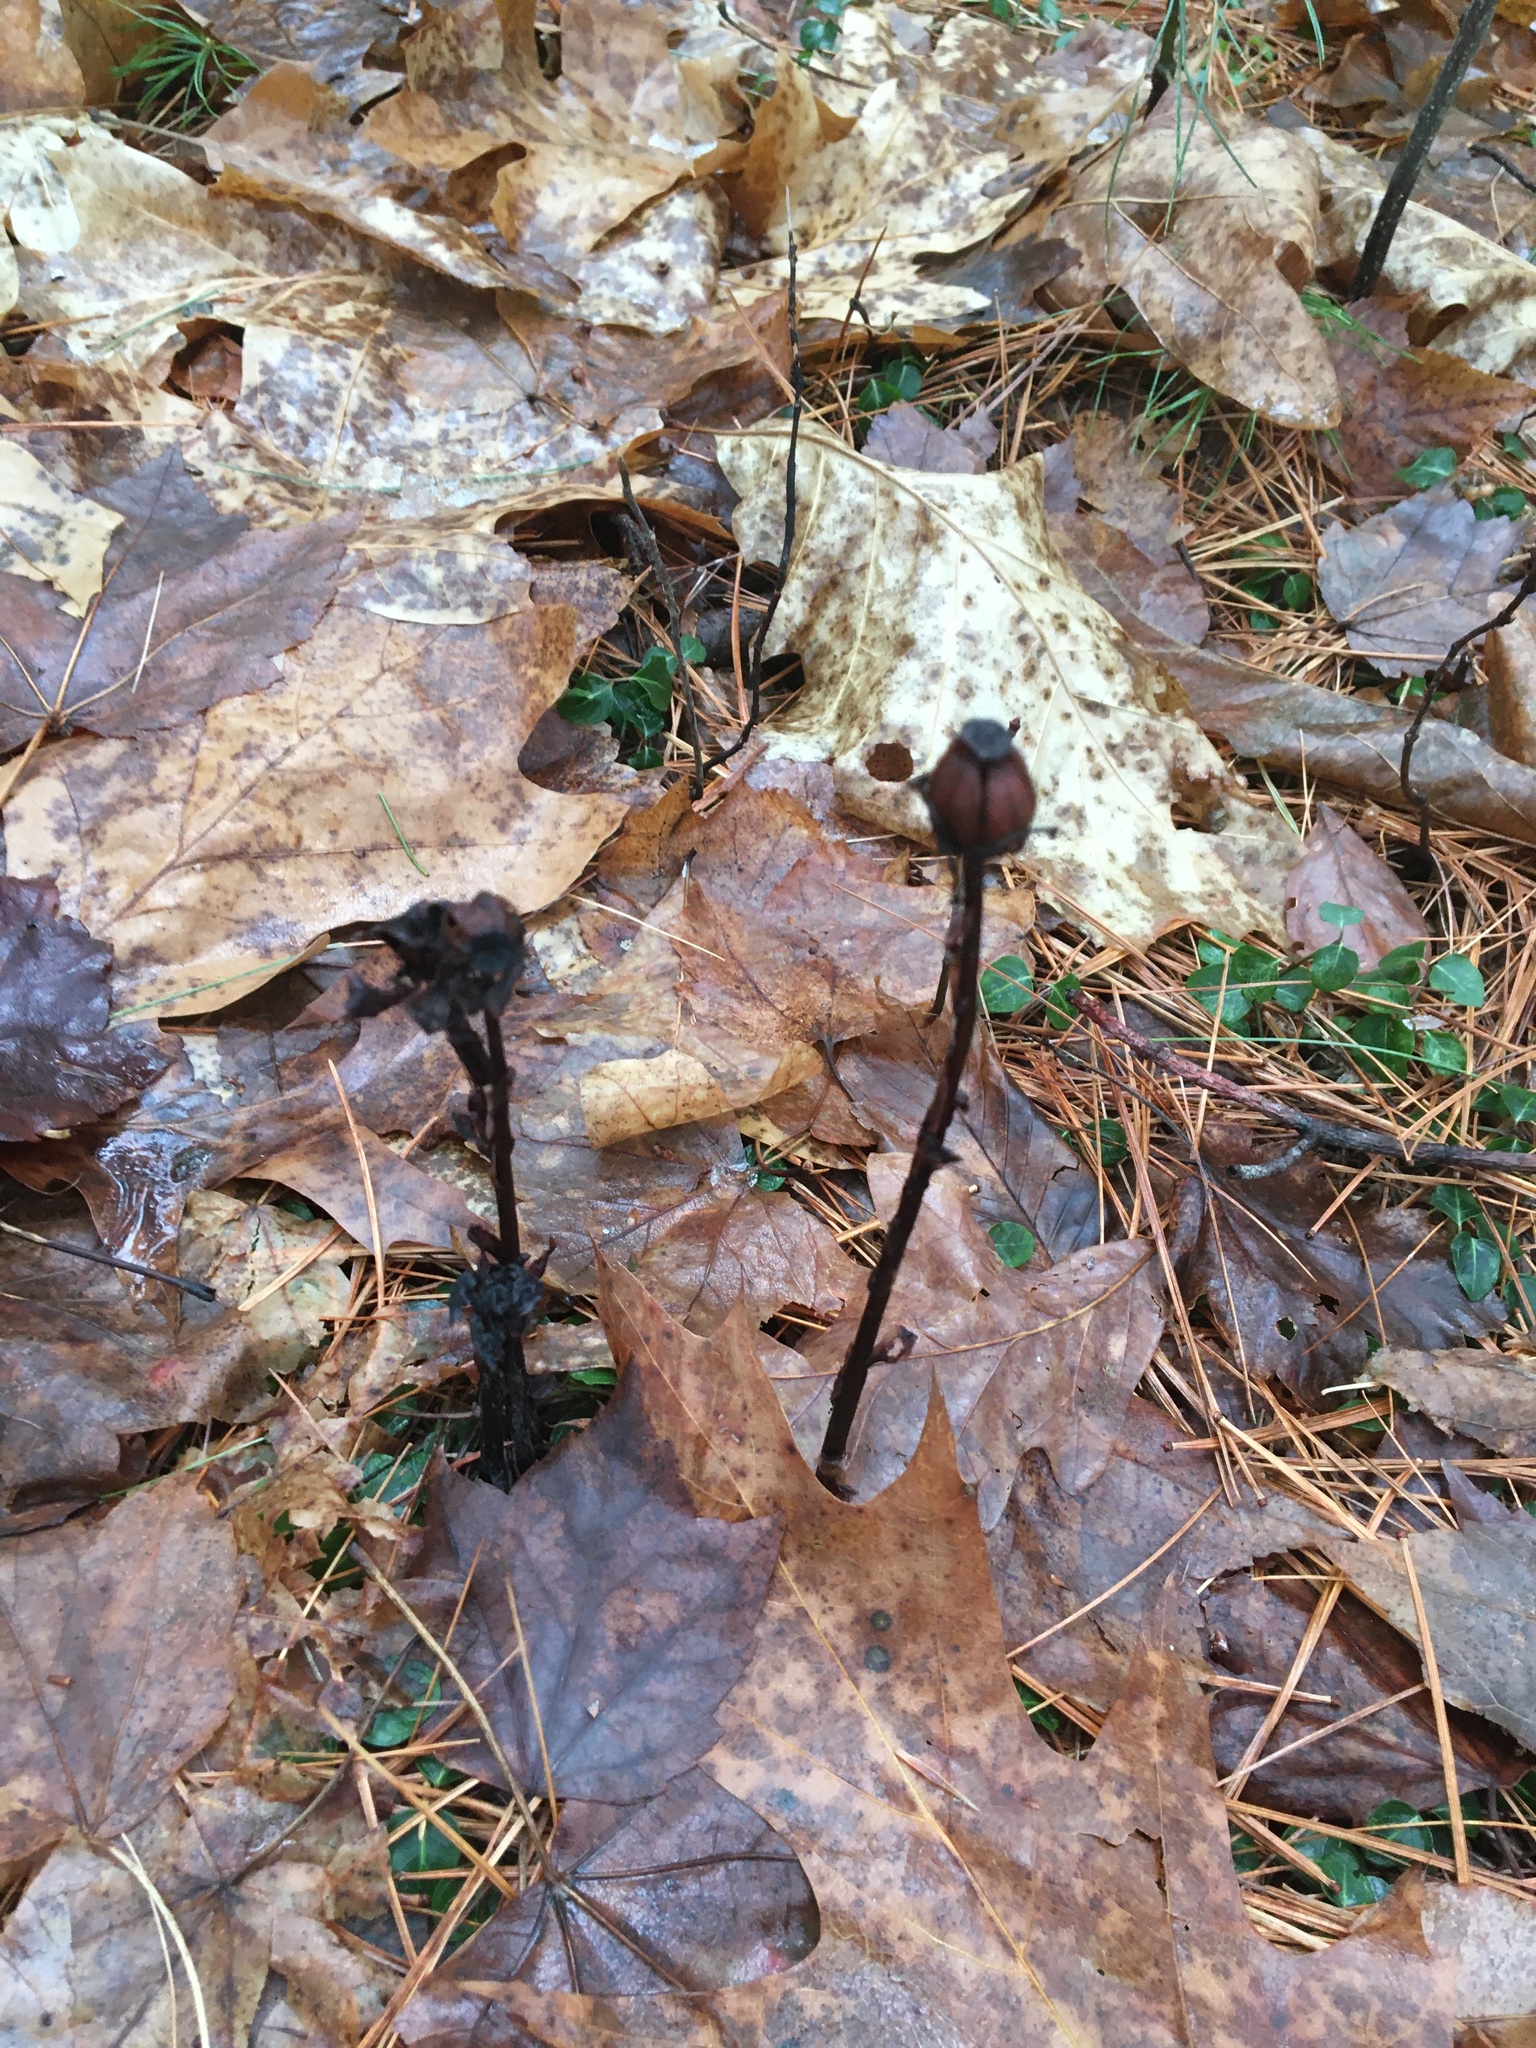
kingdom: Plantae
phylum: Tracheophyta
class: Magnoliopsida
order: Ericales
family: Ericaceae
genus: Monotropa
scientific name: Monotropa uniflora
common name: Convulsion root
